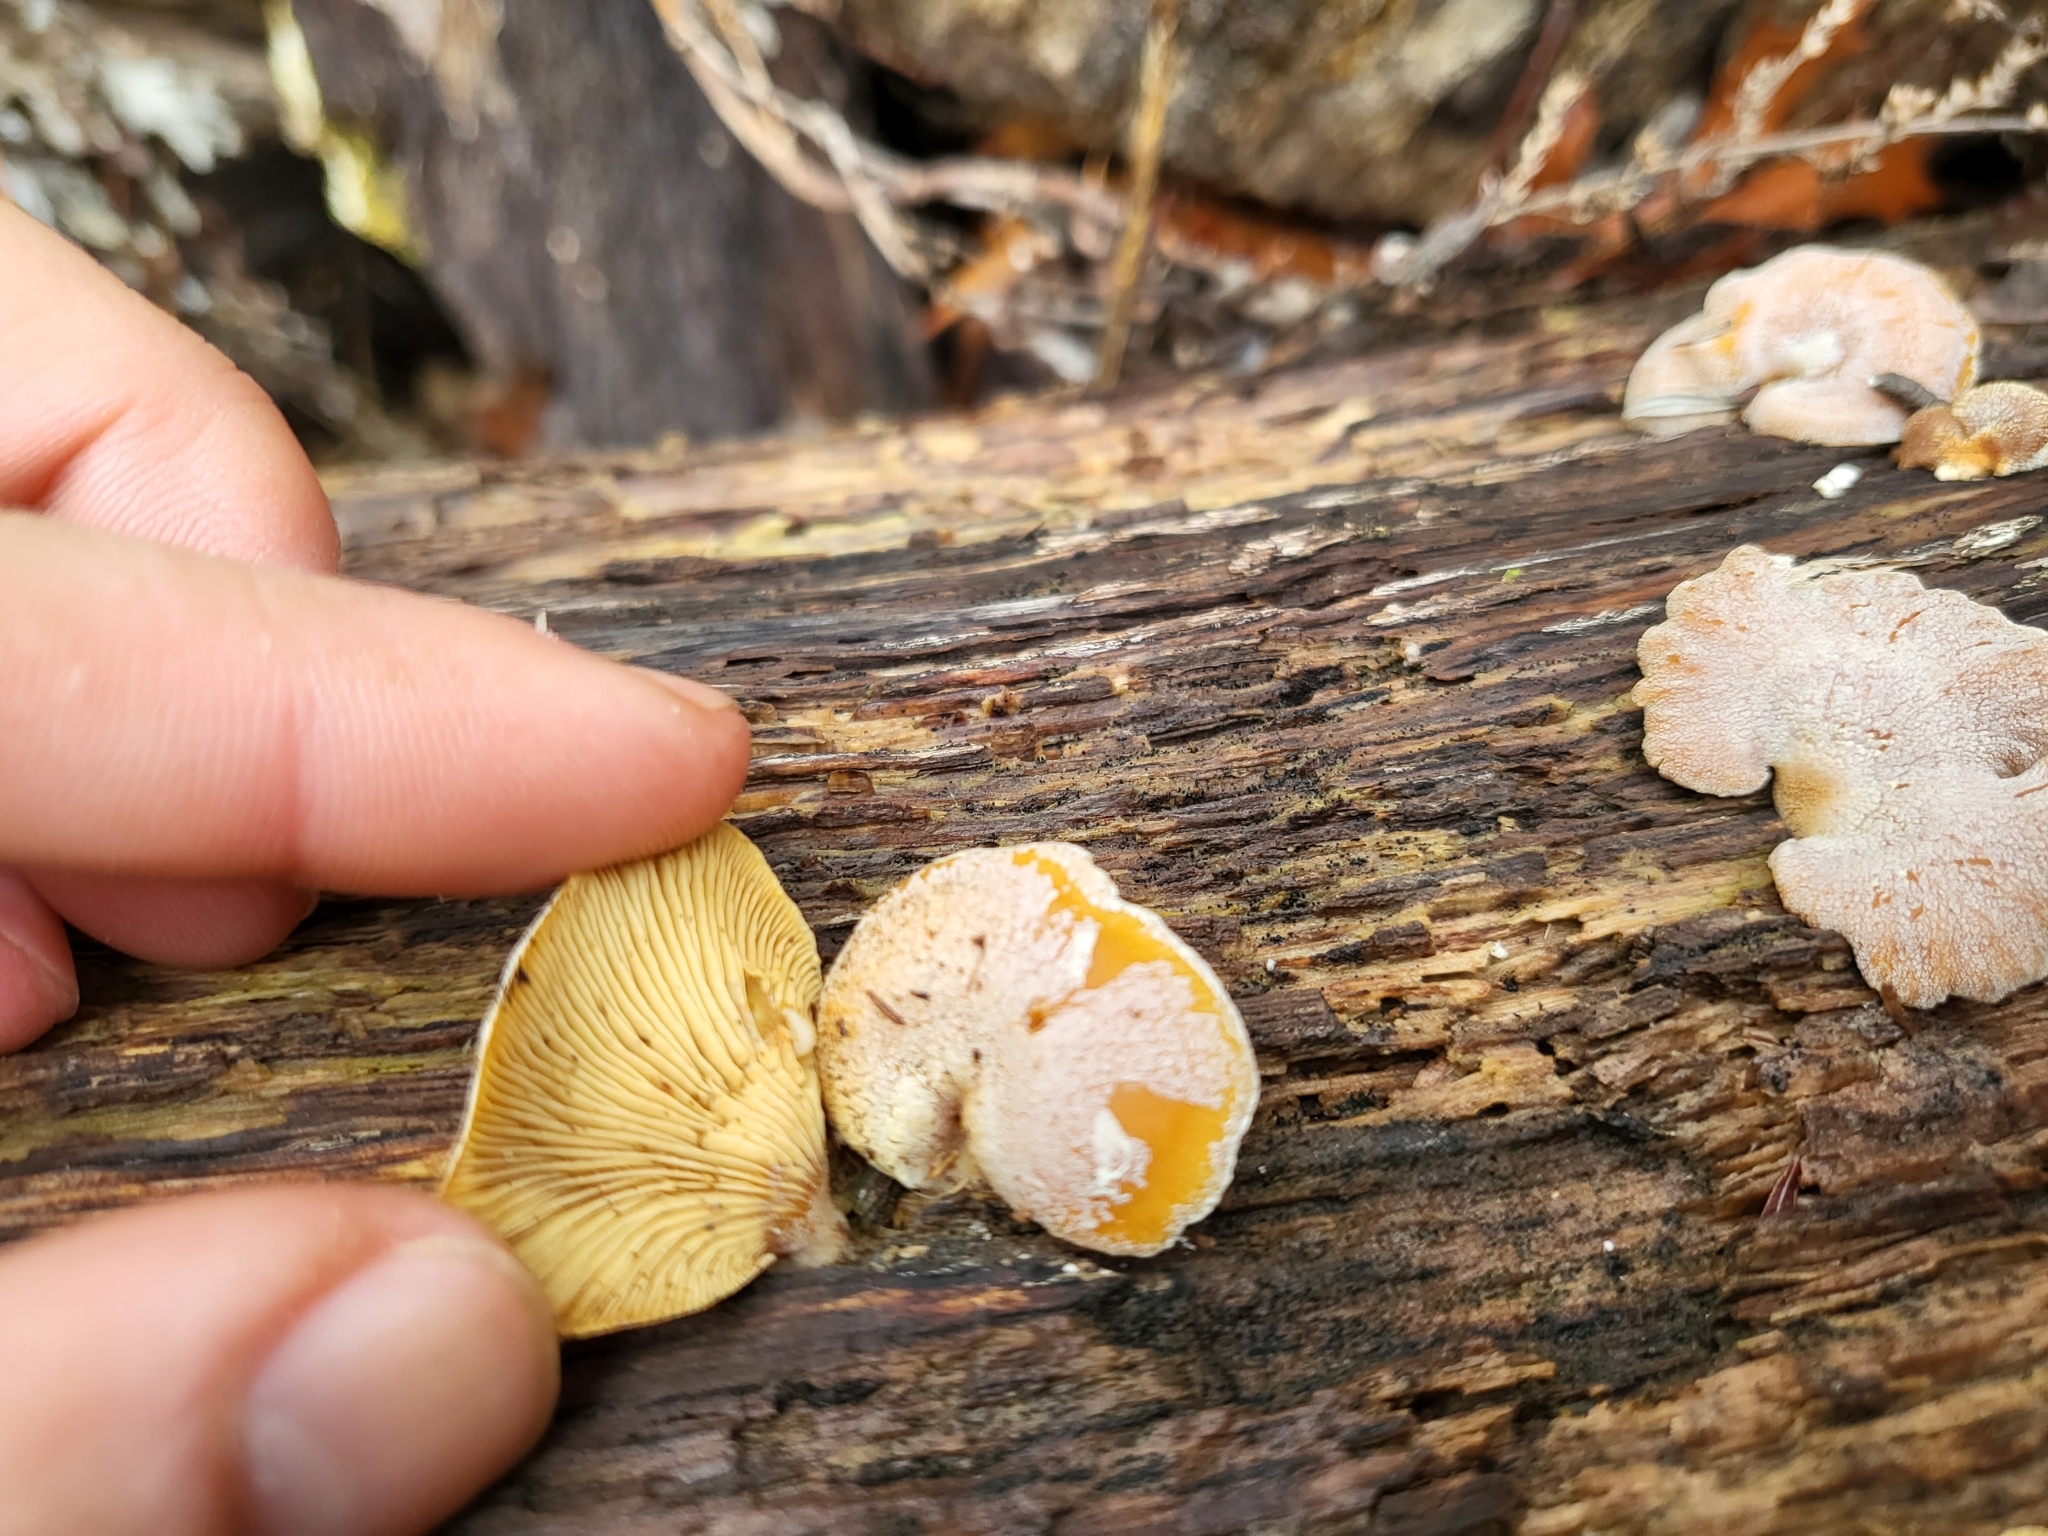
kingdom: Fungi
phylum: Basidiomycota
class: Agaricomycetes
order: Agaricales
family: Mycenaceae
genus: Panellus
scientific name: Panellus stipticus
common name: Bitter oysterling
